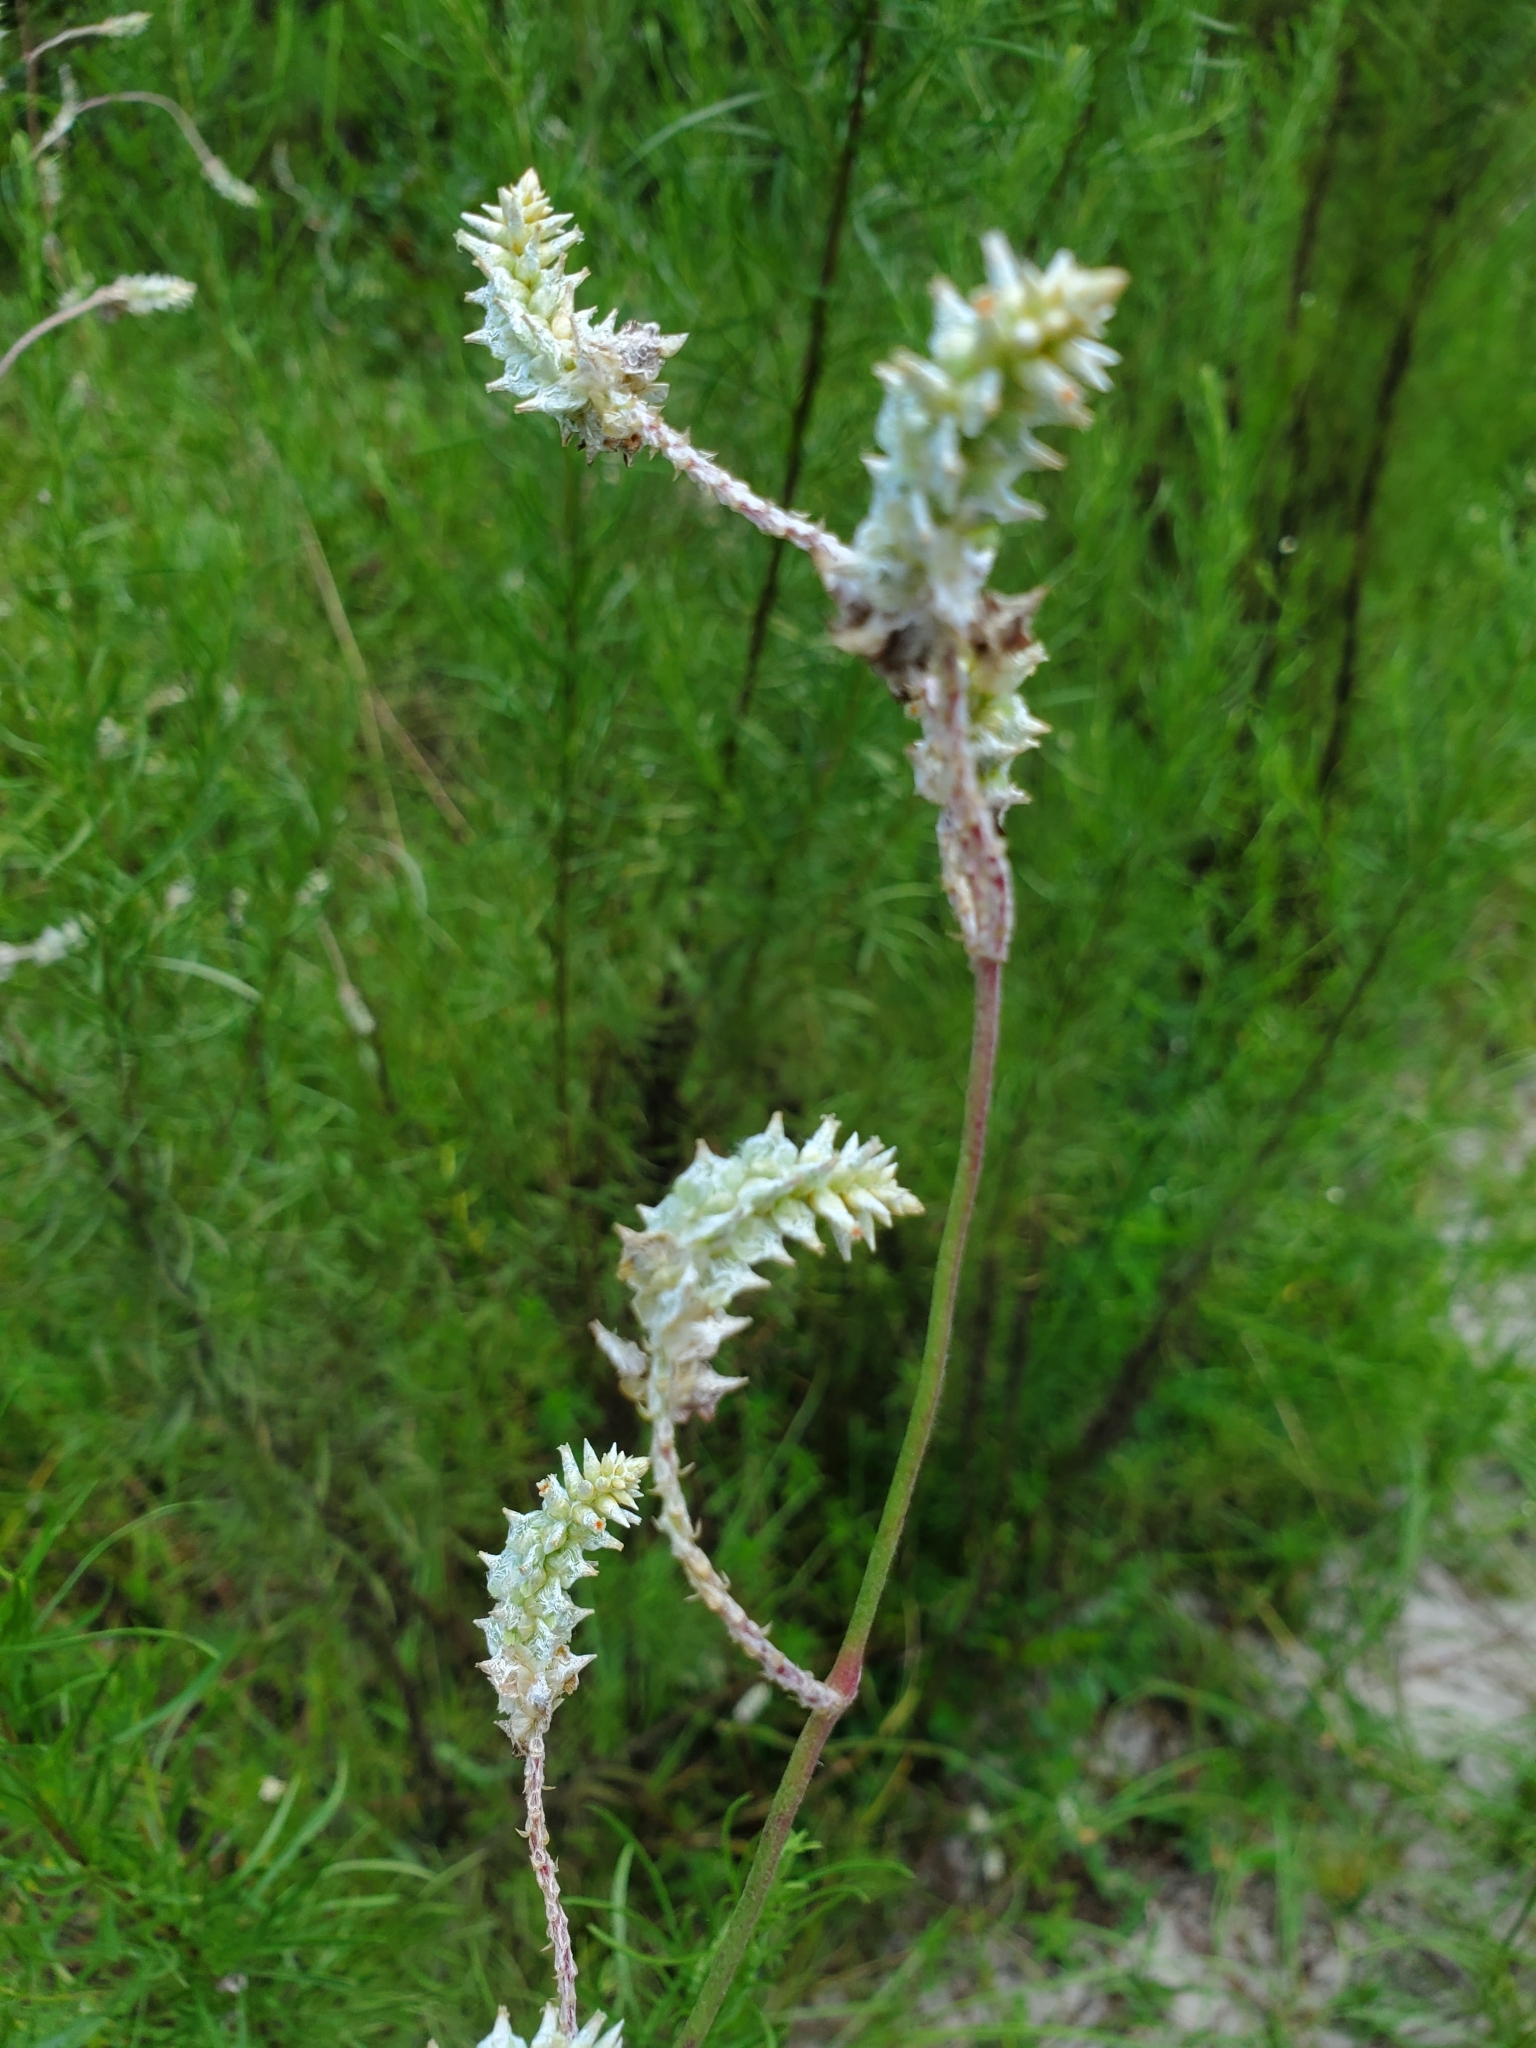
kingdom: Plantae
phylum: Tracheophyta
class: Magnoliopsida
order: Caryophyllales
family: Amaranthaceae
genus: Froelichia
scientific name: Froelichia floridana
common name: Florida snake-cotton
